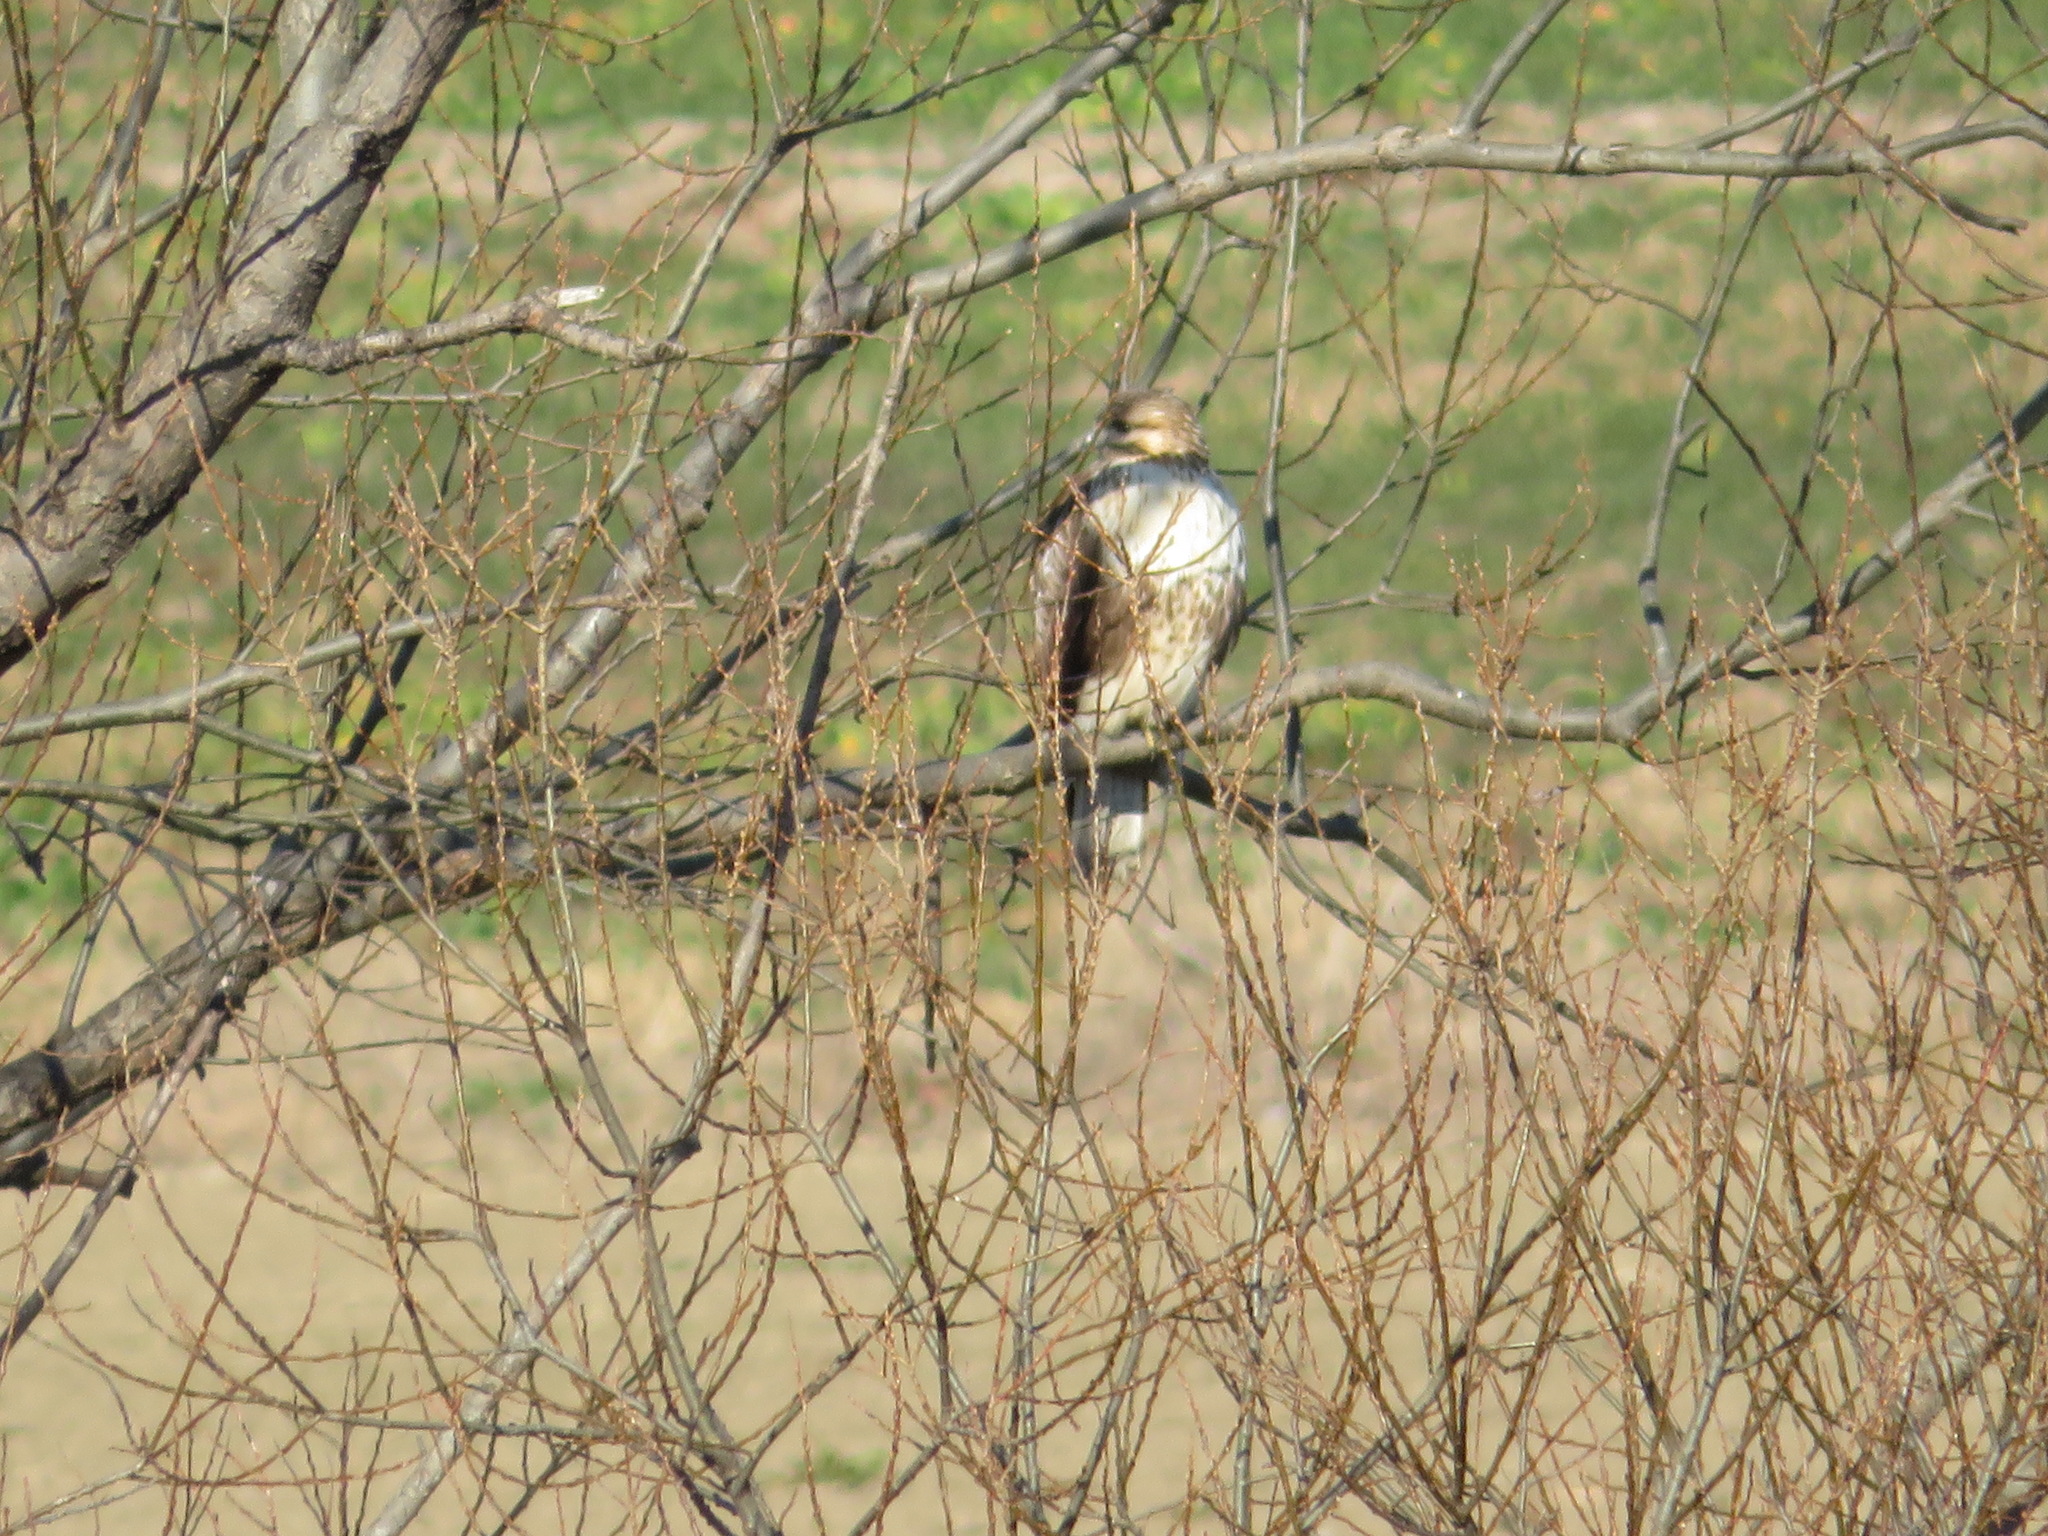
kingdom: Animalia
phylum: Chordata
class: Aves
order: Accipitriformes
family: Accipitridae
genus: Buteo
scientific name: Buteo japonicus
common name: Eastern buzzard
